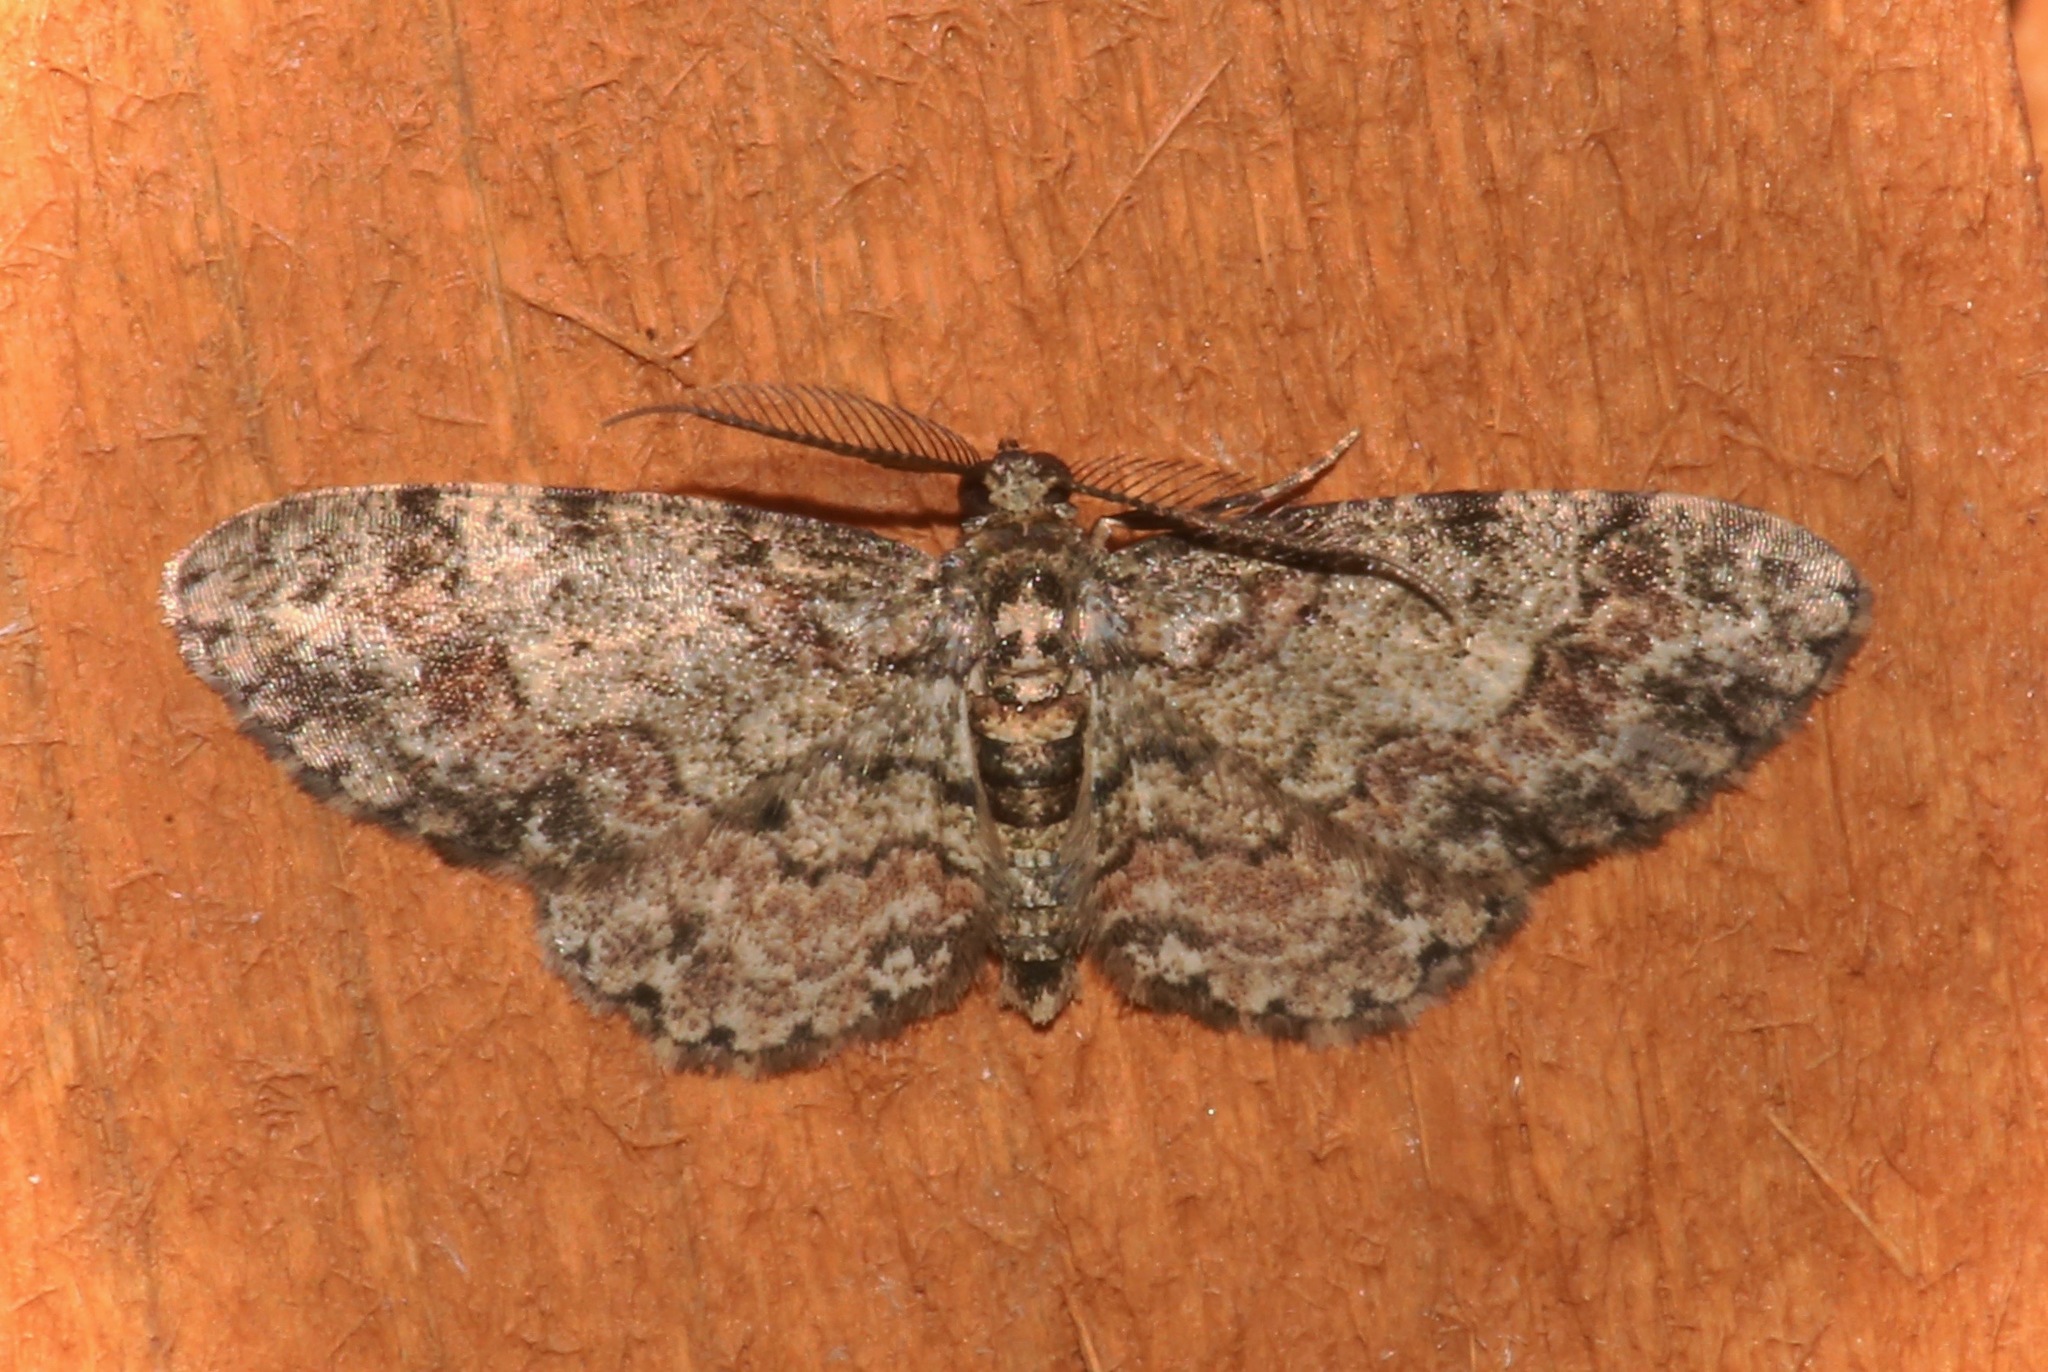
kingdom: Animalia
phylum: Arthropoda
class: Insecta
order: Lepidoptera
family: Geometridae
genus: Glenoides
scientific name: Glenoides texanaria
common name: Texas gray
